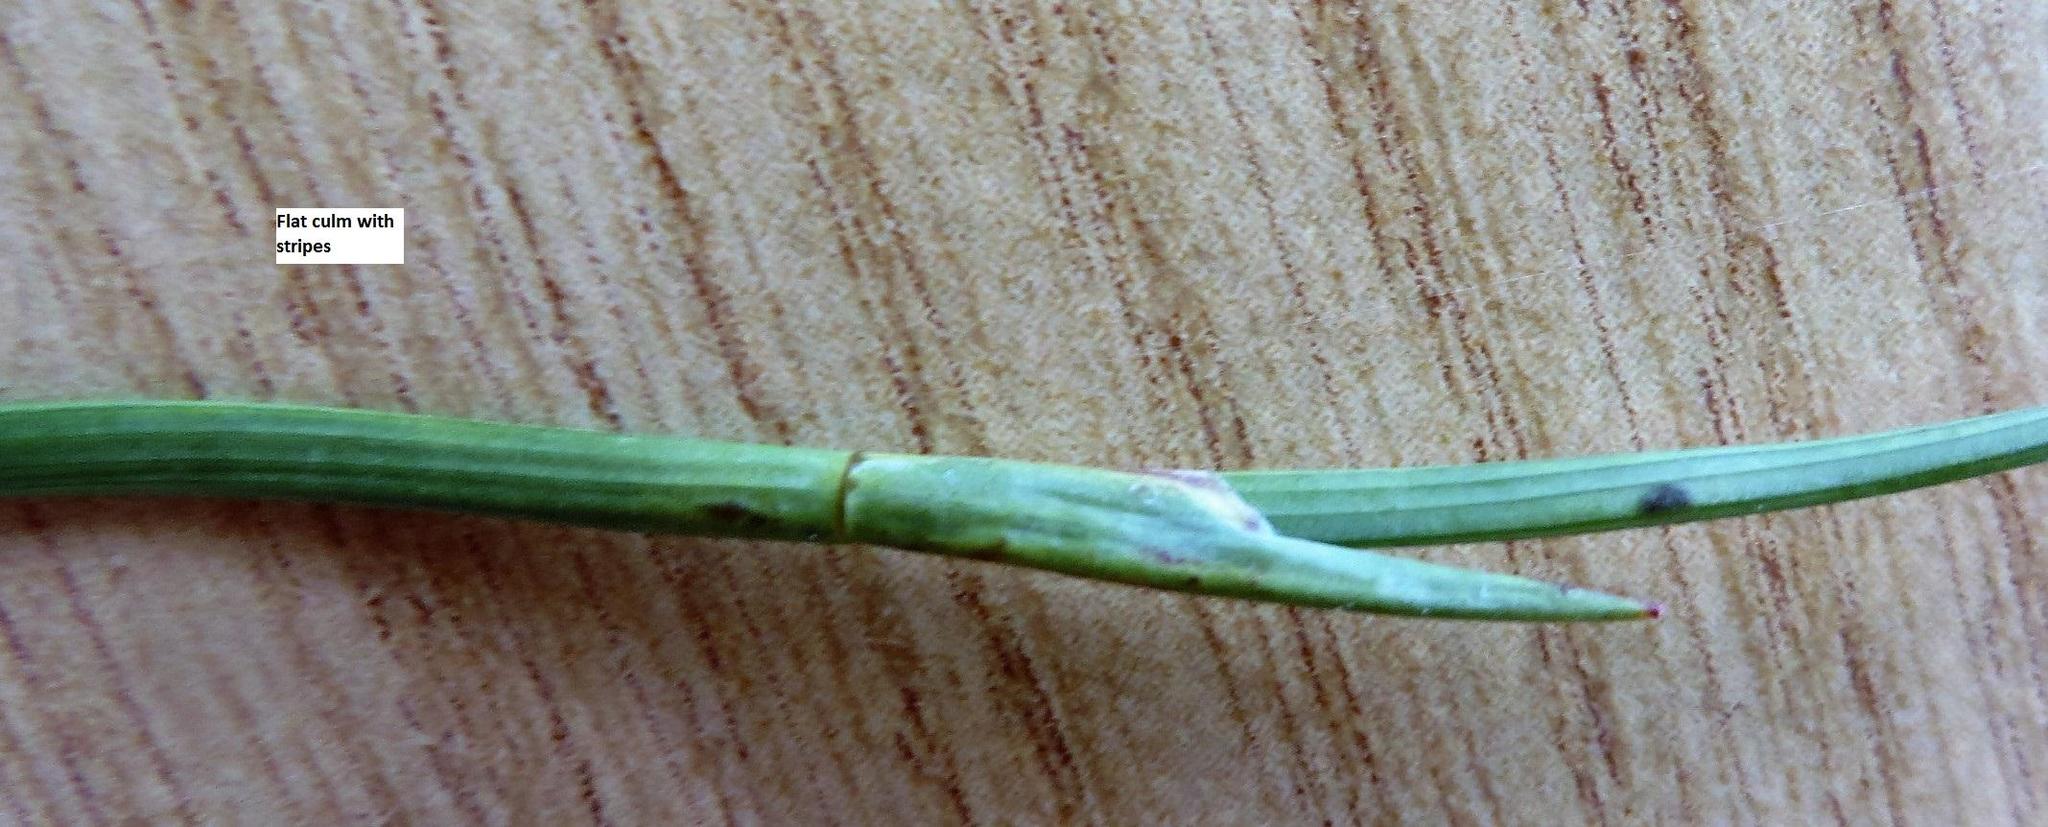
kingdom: Plantae
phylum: Tracheophyta
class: Liliopsida
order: Poales
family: Restionaceae
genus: Hypodiscus
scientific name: Hypodiscus willdenowia
